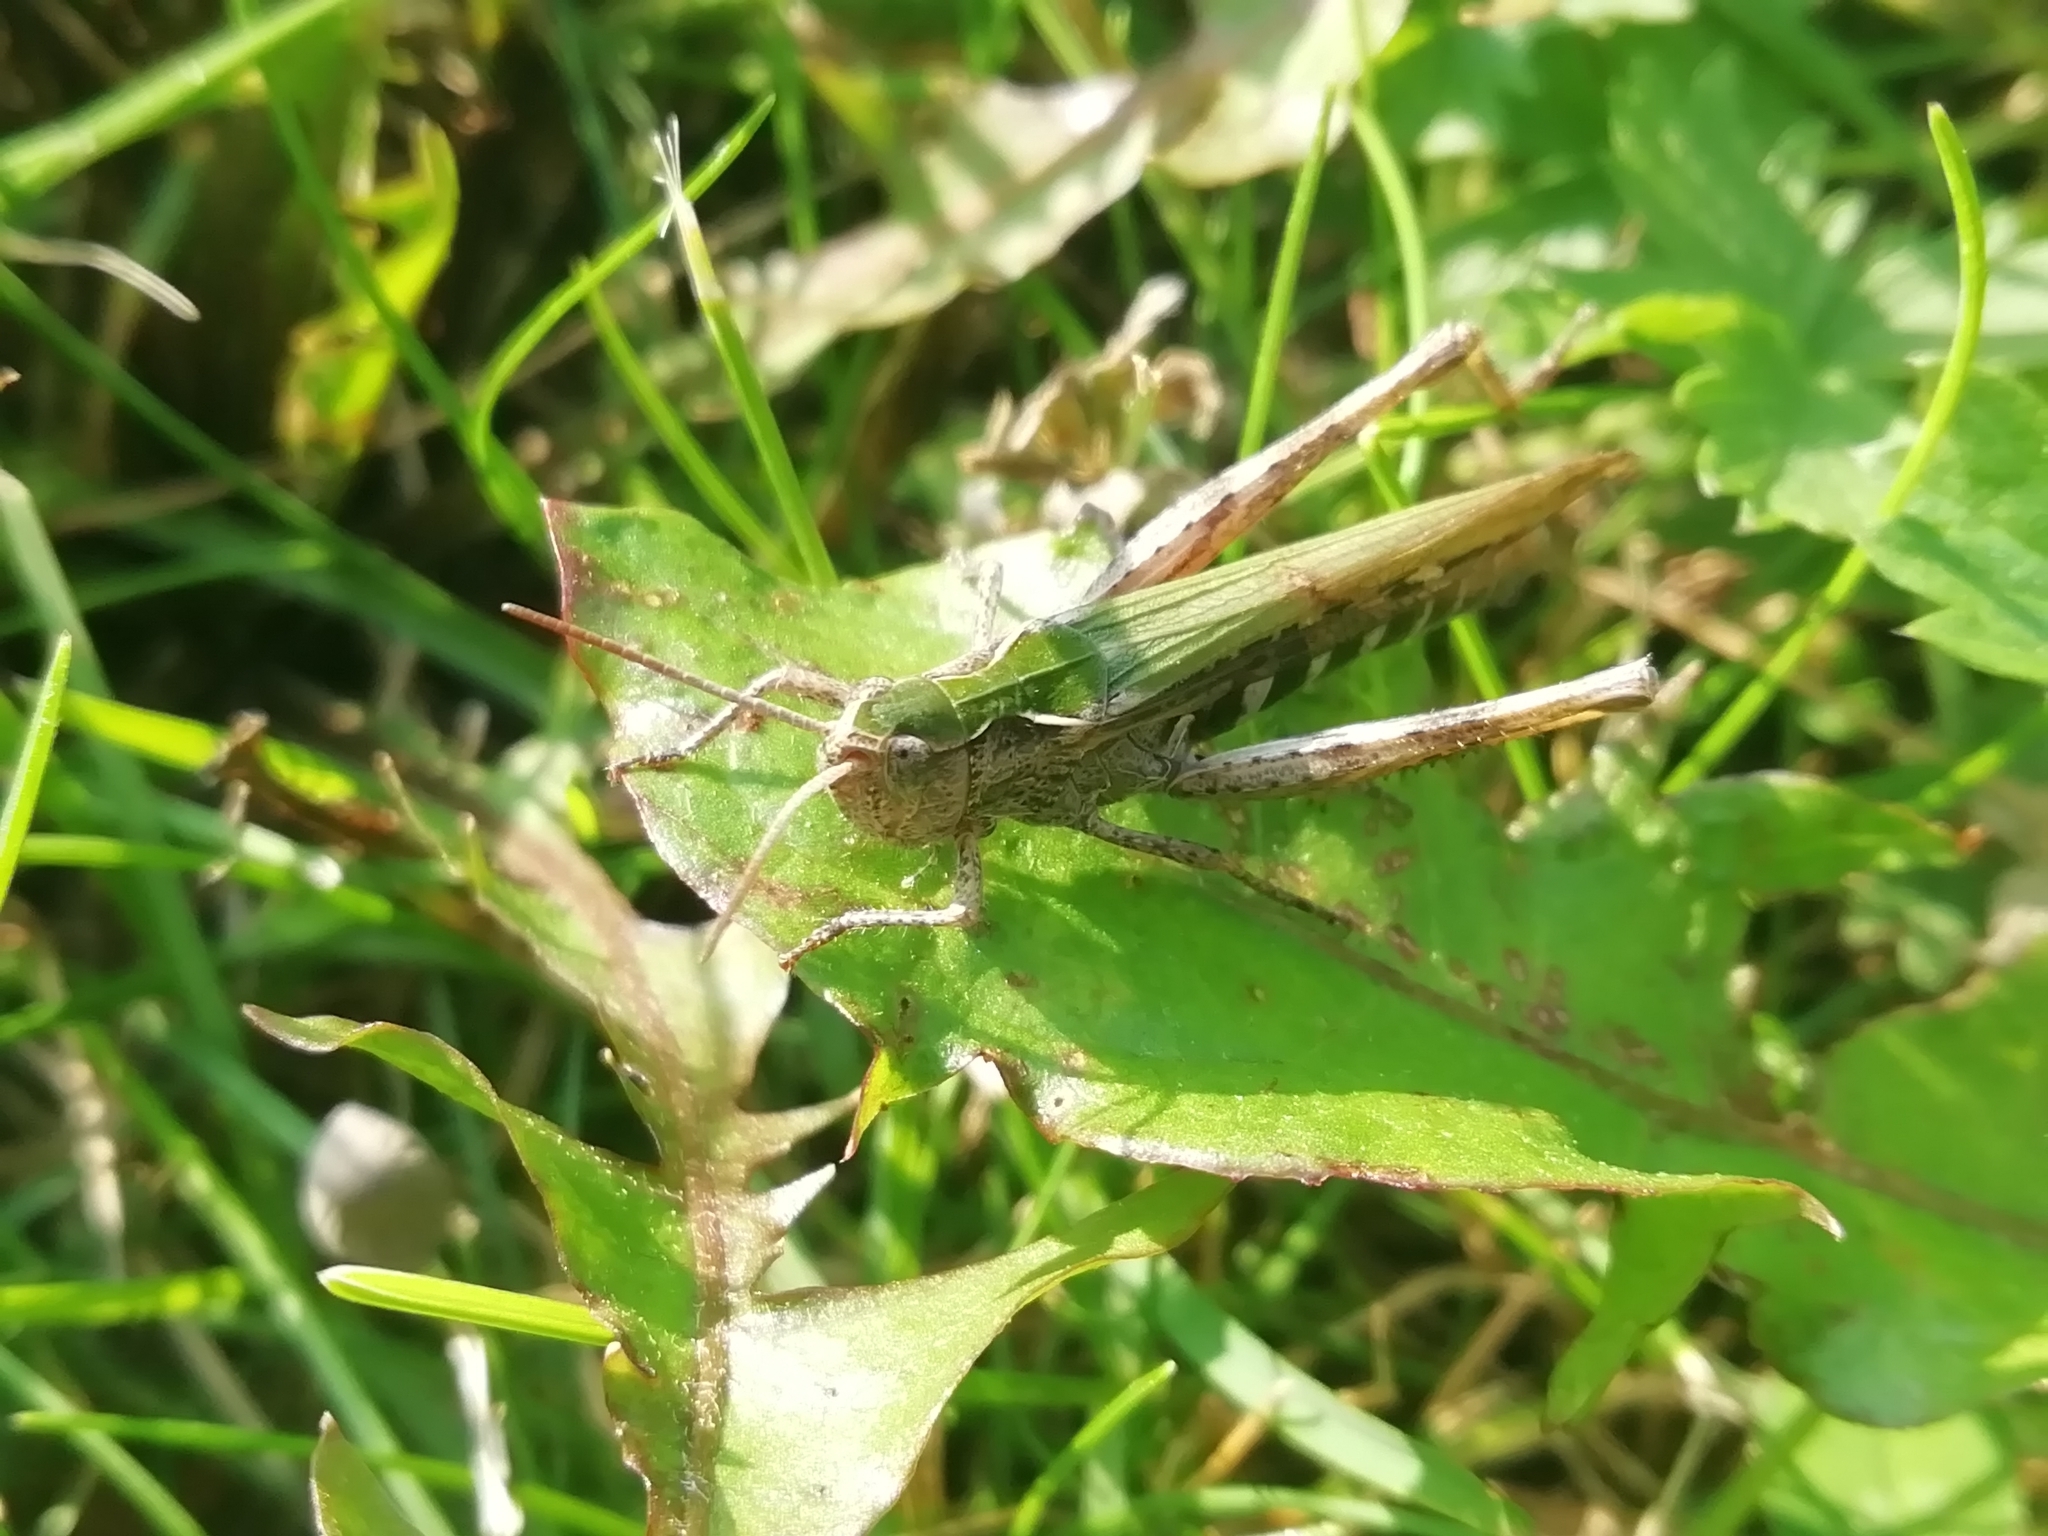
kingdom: Animalia
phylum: Arthropoda
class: Insecta
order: Orthoptera
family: Acrididae
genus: Chorthippus
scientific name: Chorthippus biguttulus
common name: Bow-winged grasshopper
